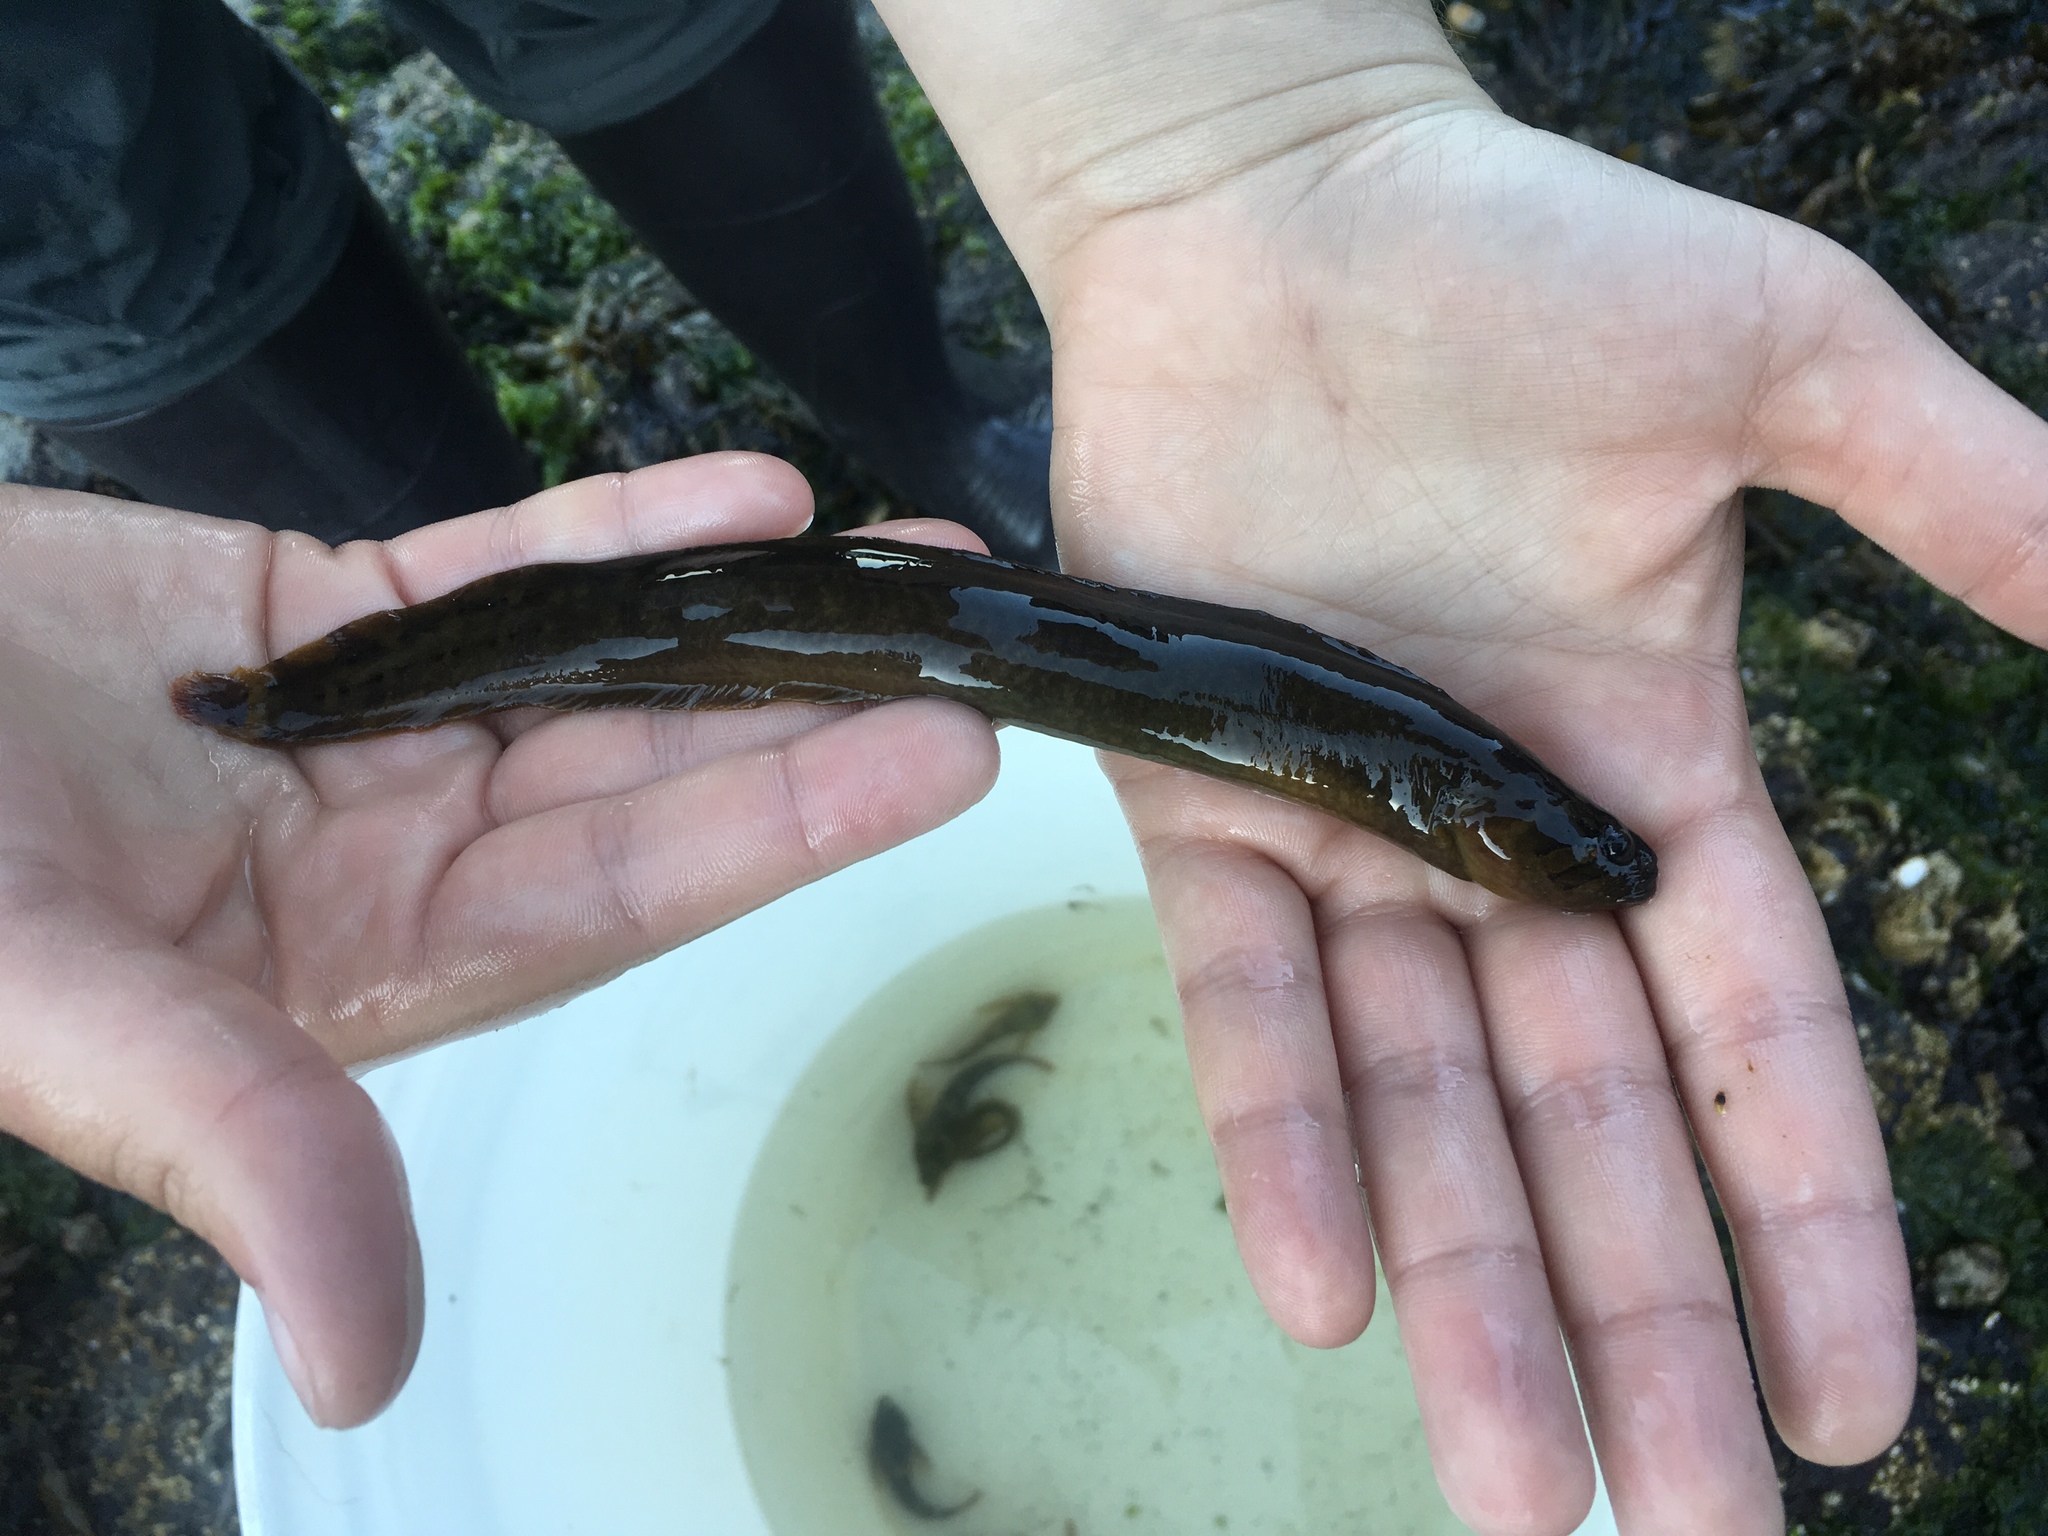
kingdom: Animalia
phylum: Chordata
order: Perciformes
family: Stichaeidae
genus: Xiphister
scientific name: Xiphister mucosus
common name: Rock prickleback
